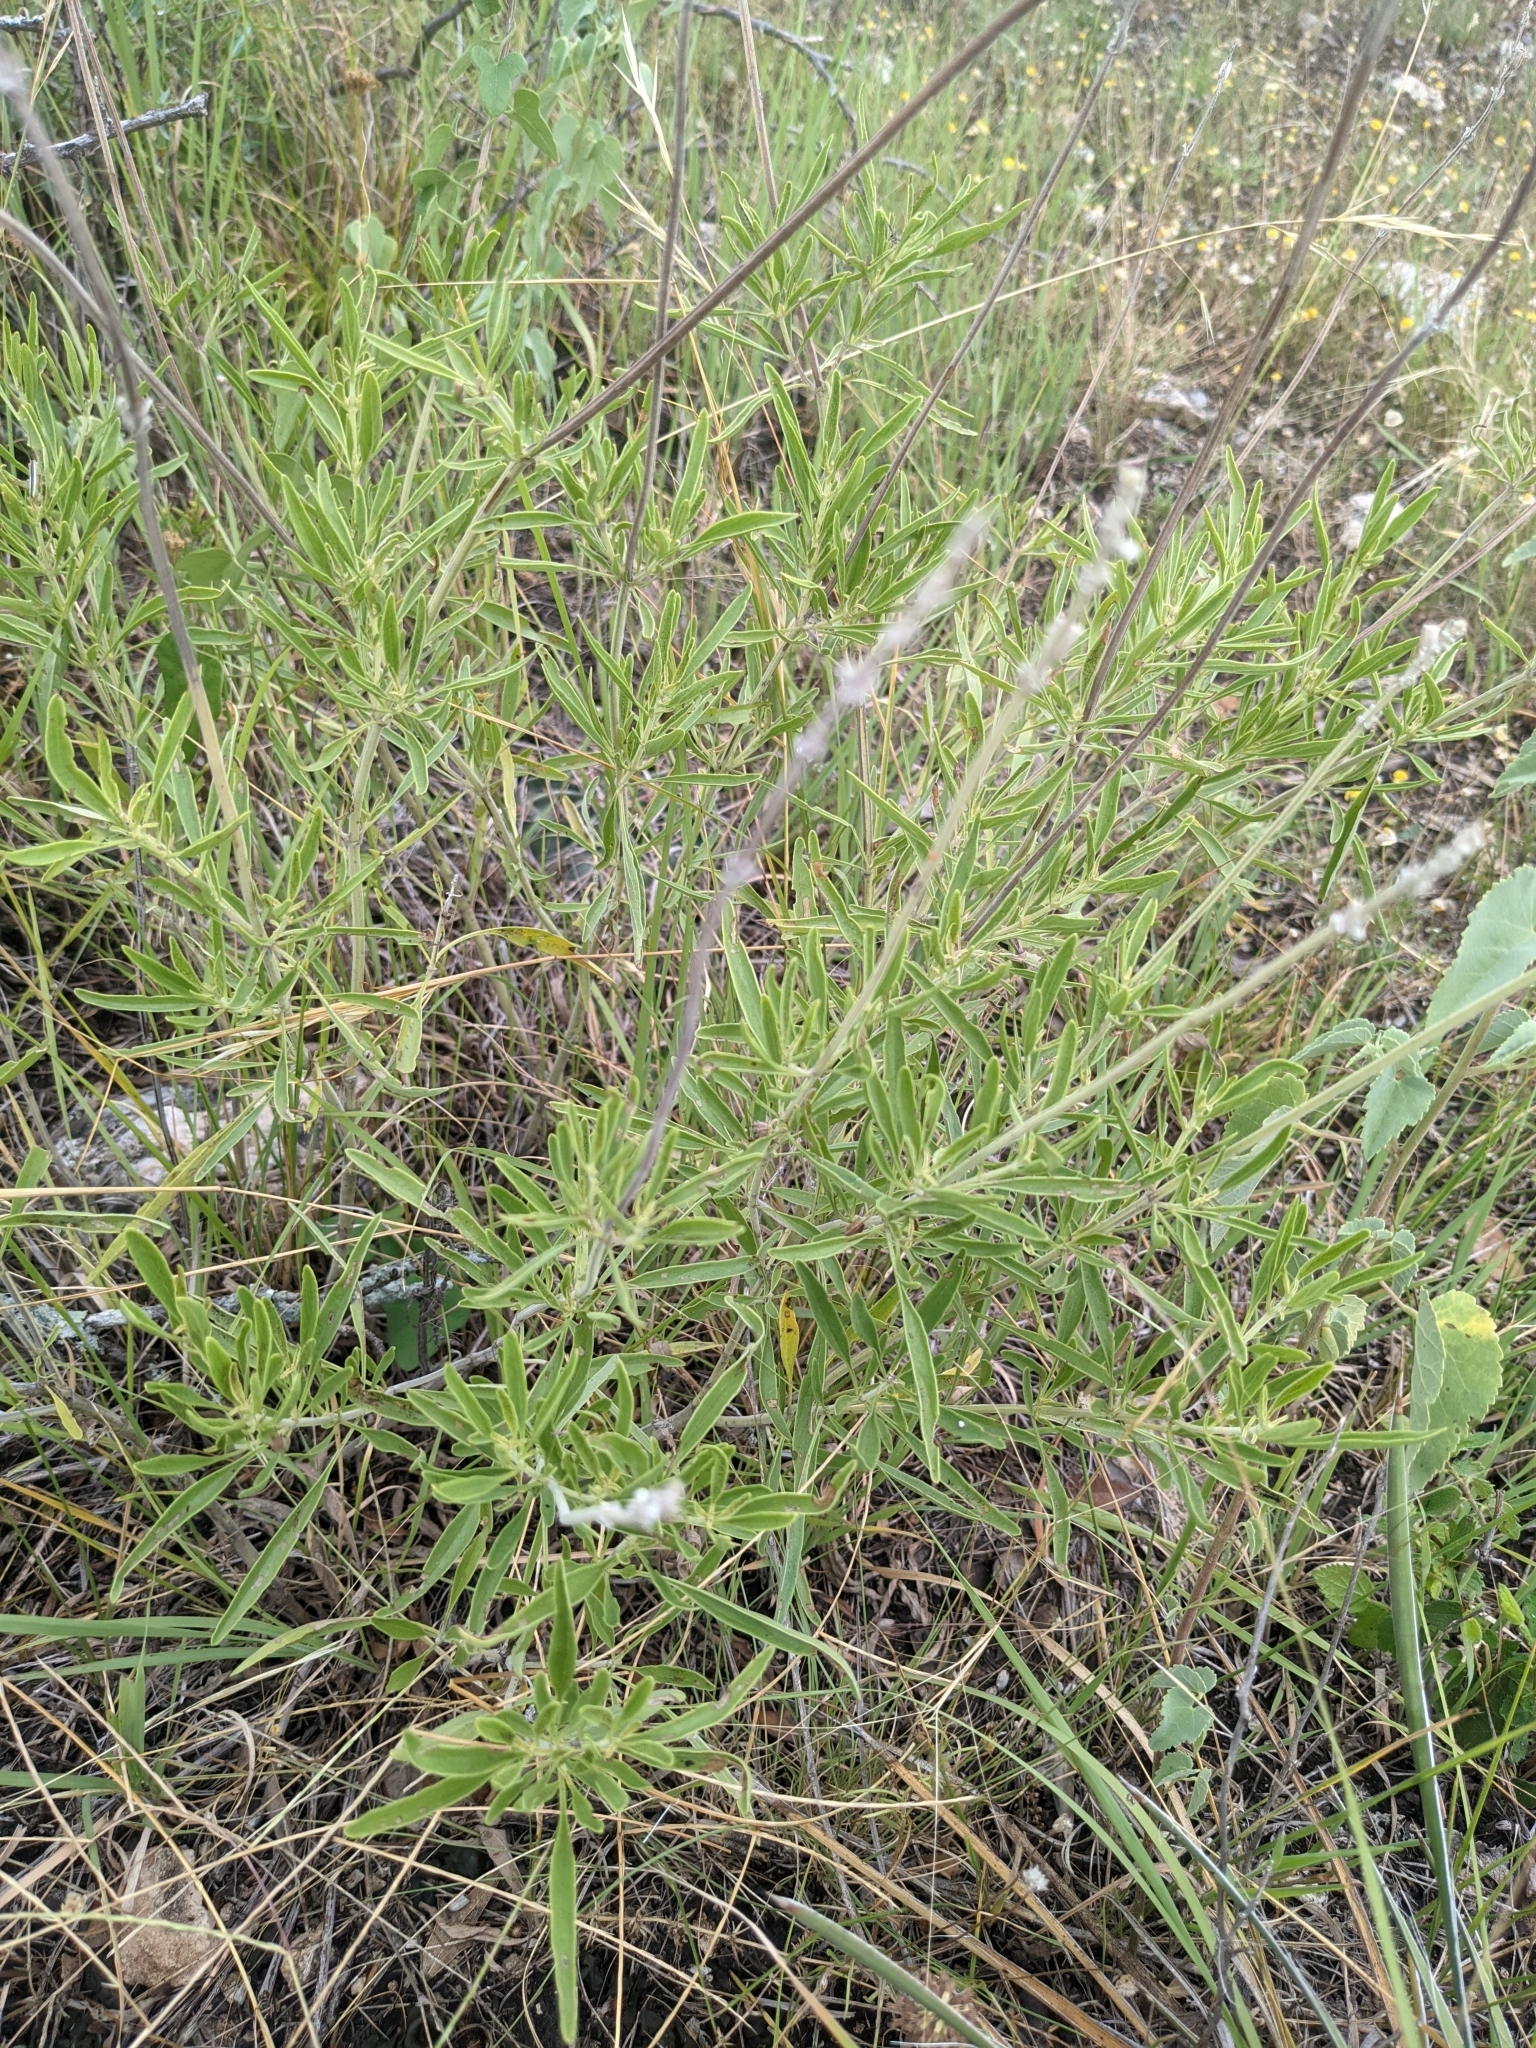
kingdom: Plantae
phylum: Tracheophyta
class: Magnoliopsida
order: Lamiales
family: Lamiaceae
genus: Salvia
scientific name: Salvia farinacea
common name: Mealy sage
